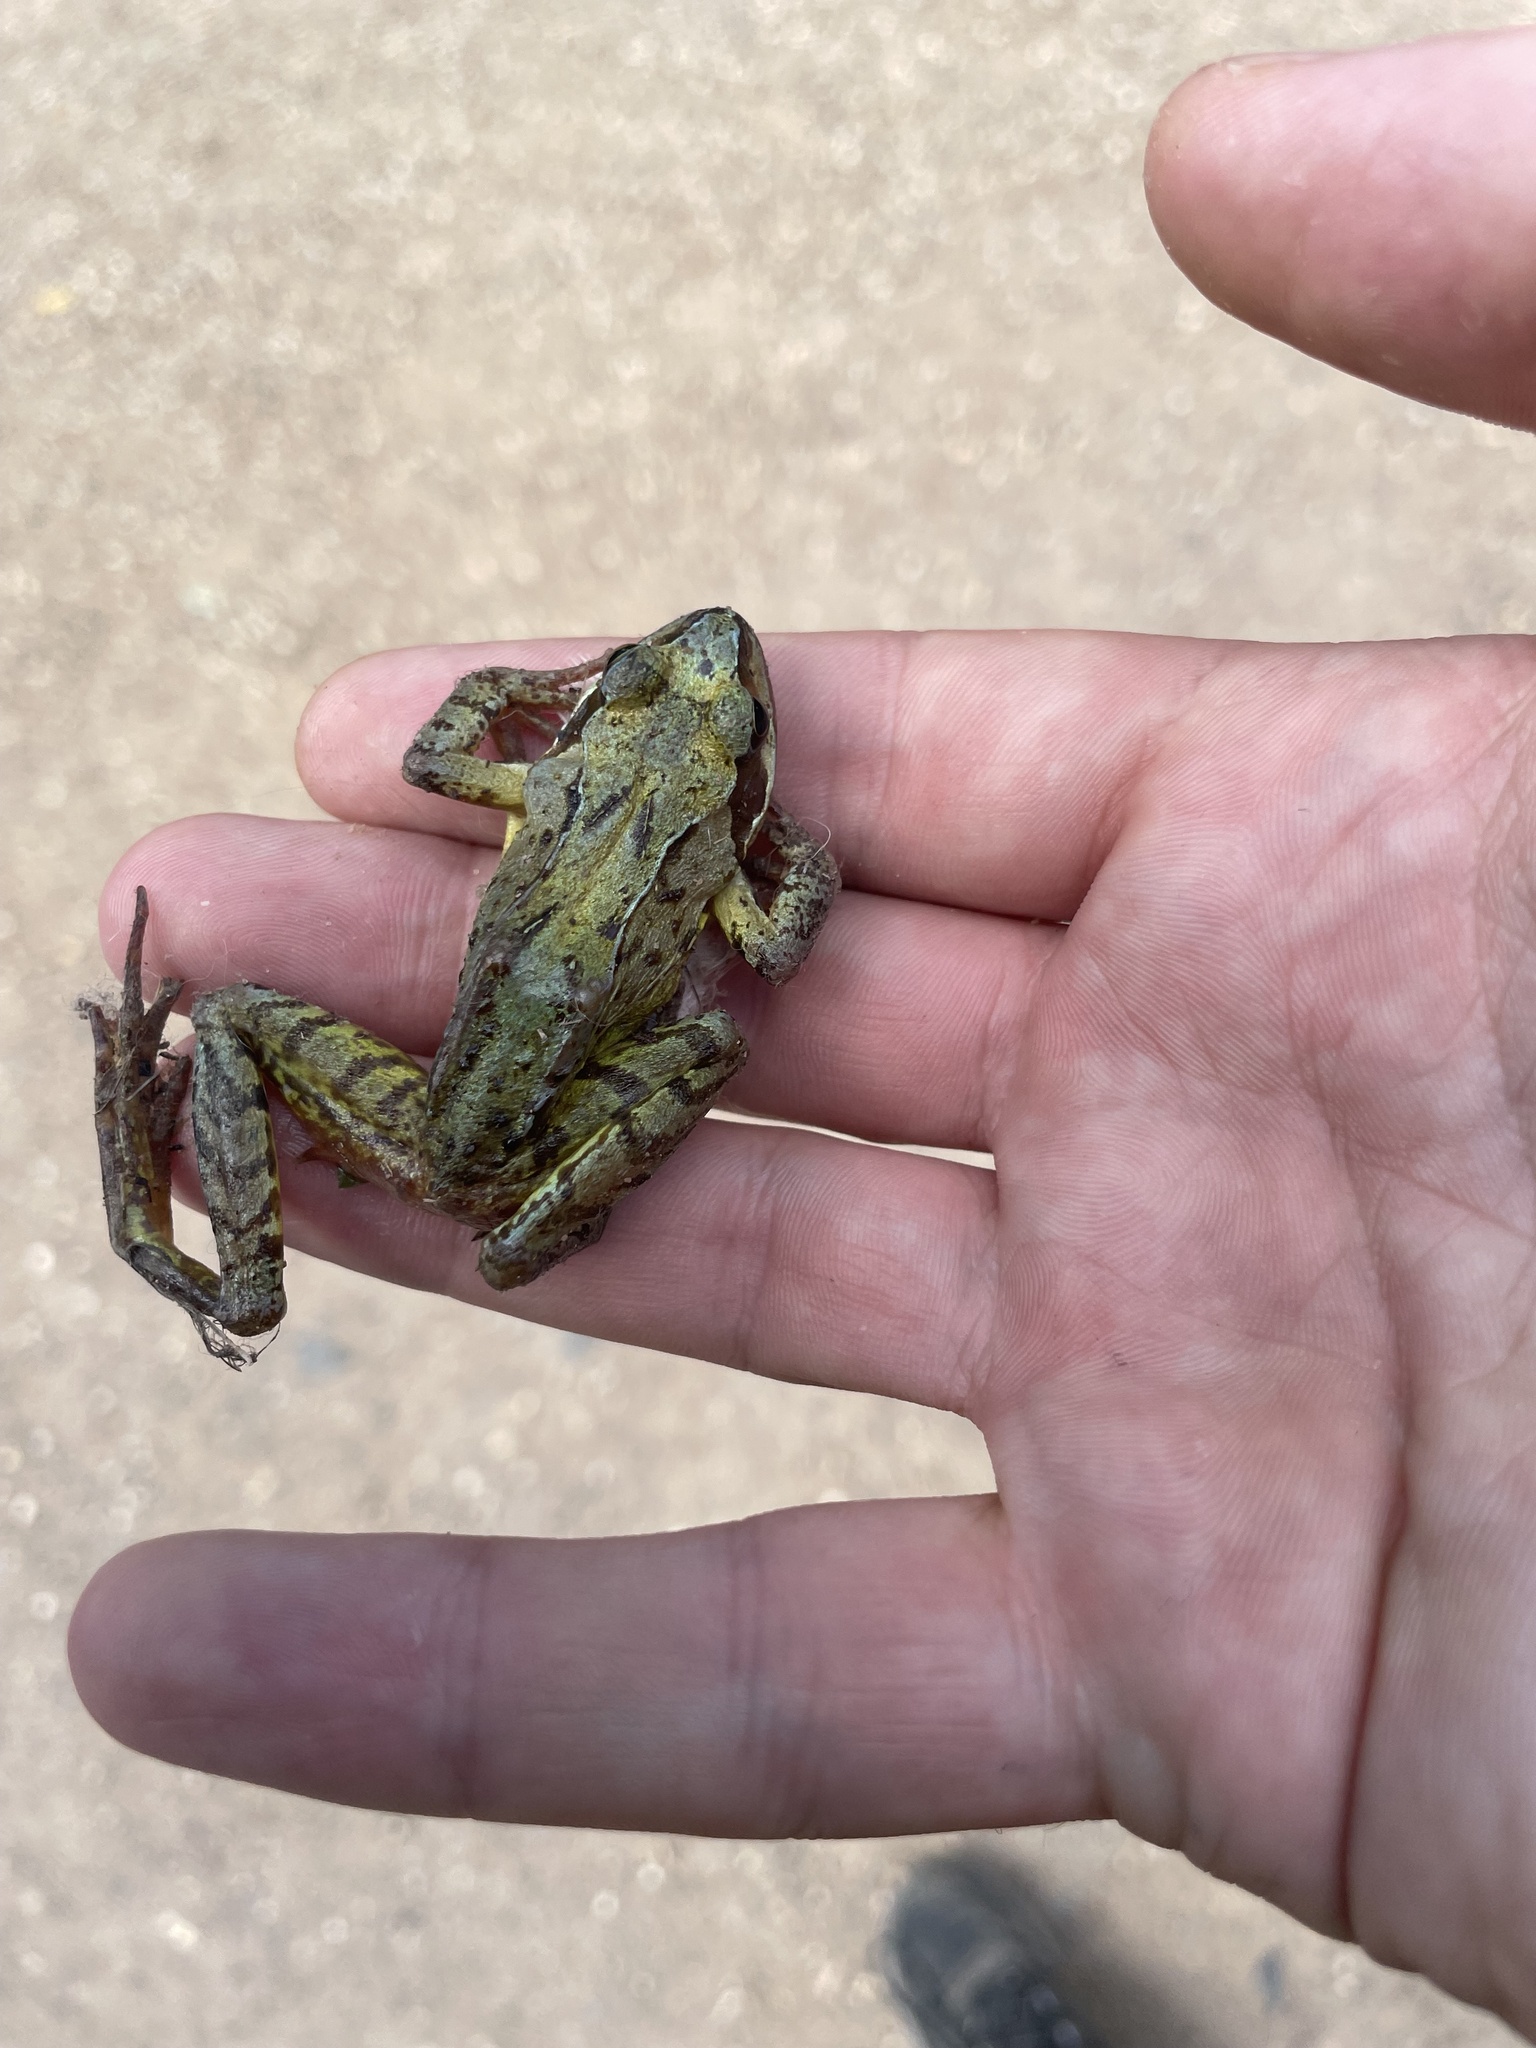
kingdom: Animalia
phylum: Chordata
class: Amphibia
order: Anura
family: Ranidae
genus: Rana
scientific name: Rana temporaria
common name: Common frog
